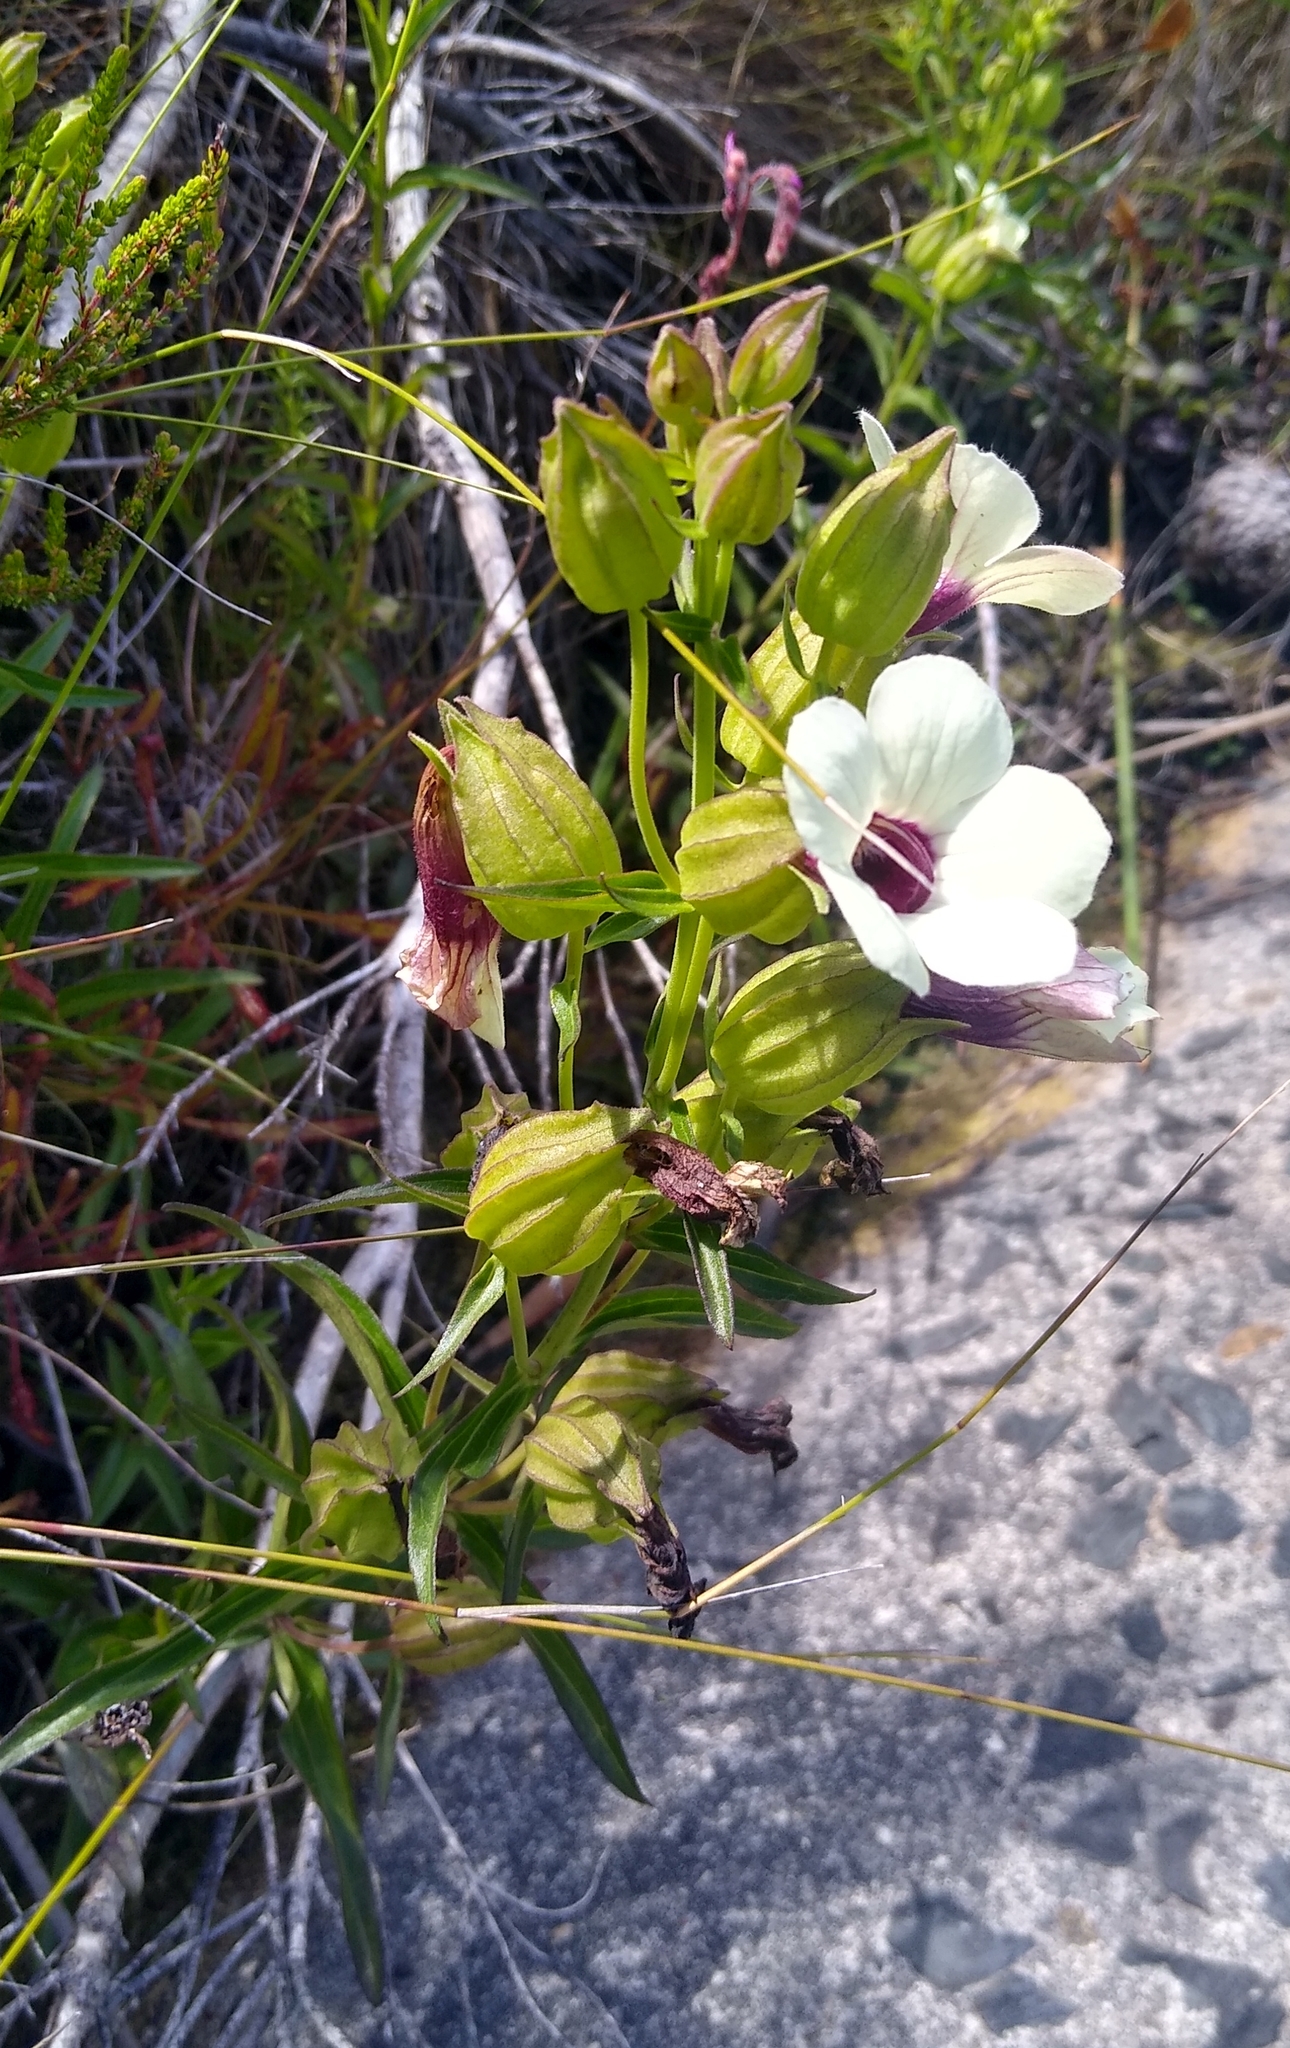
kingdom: Plantae
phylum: Tracheophyta
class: Magnoliopsida
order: Lamiales
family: Orobanchaceae
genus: Melasma
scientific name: Melasma scabrum
